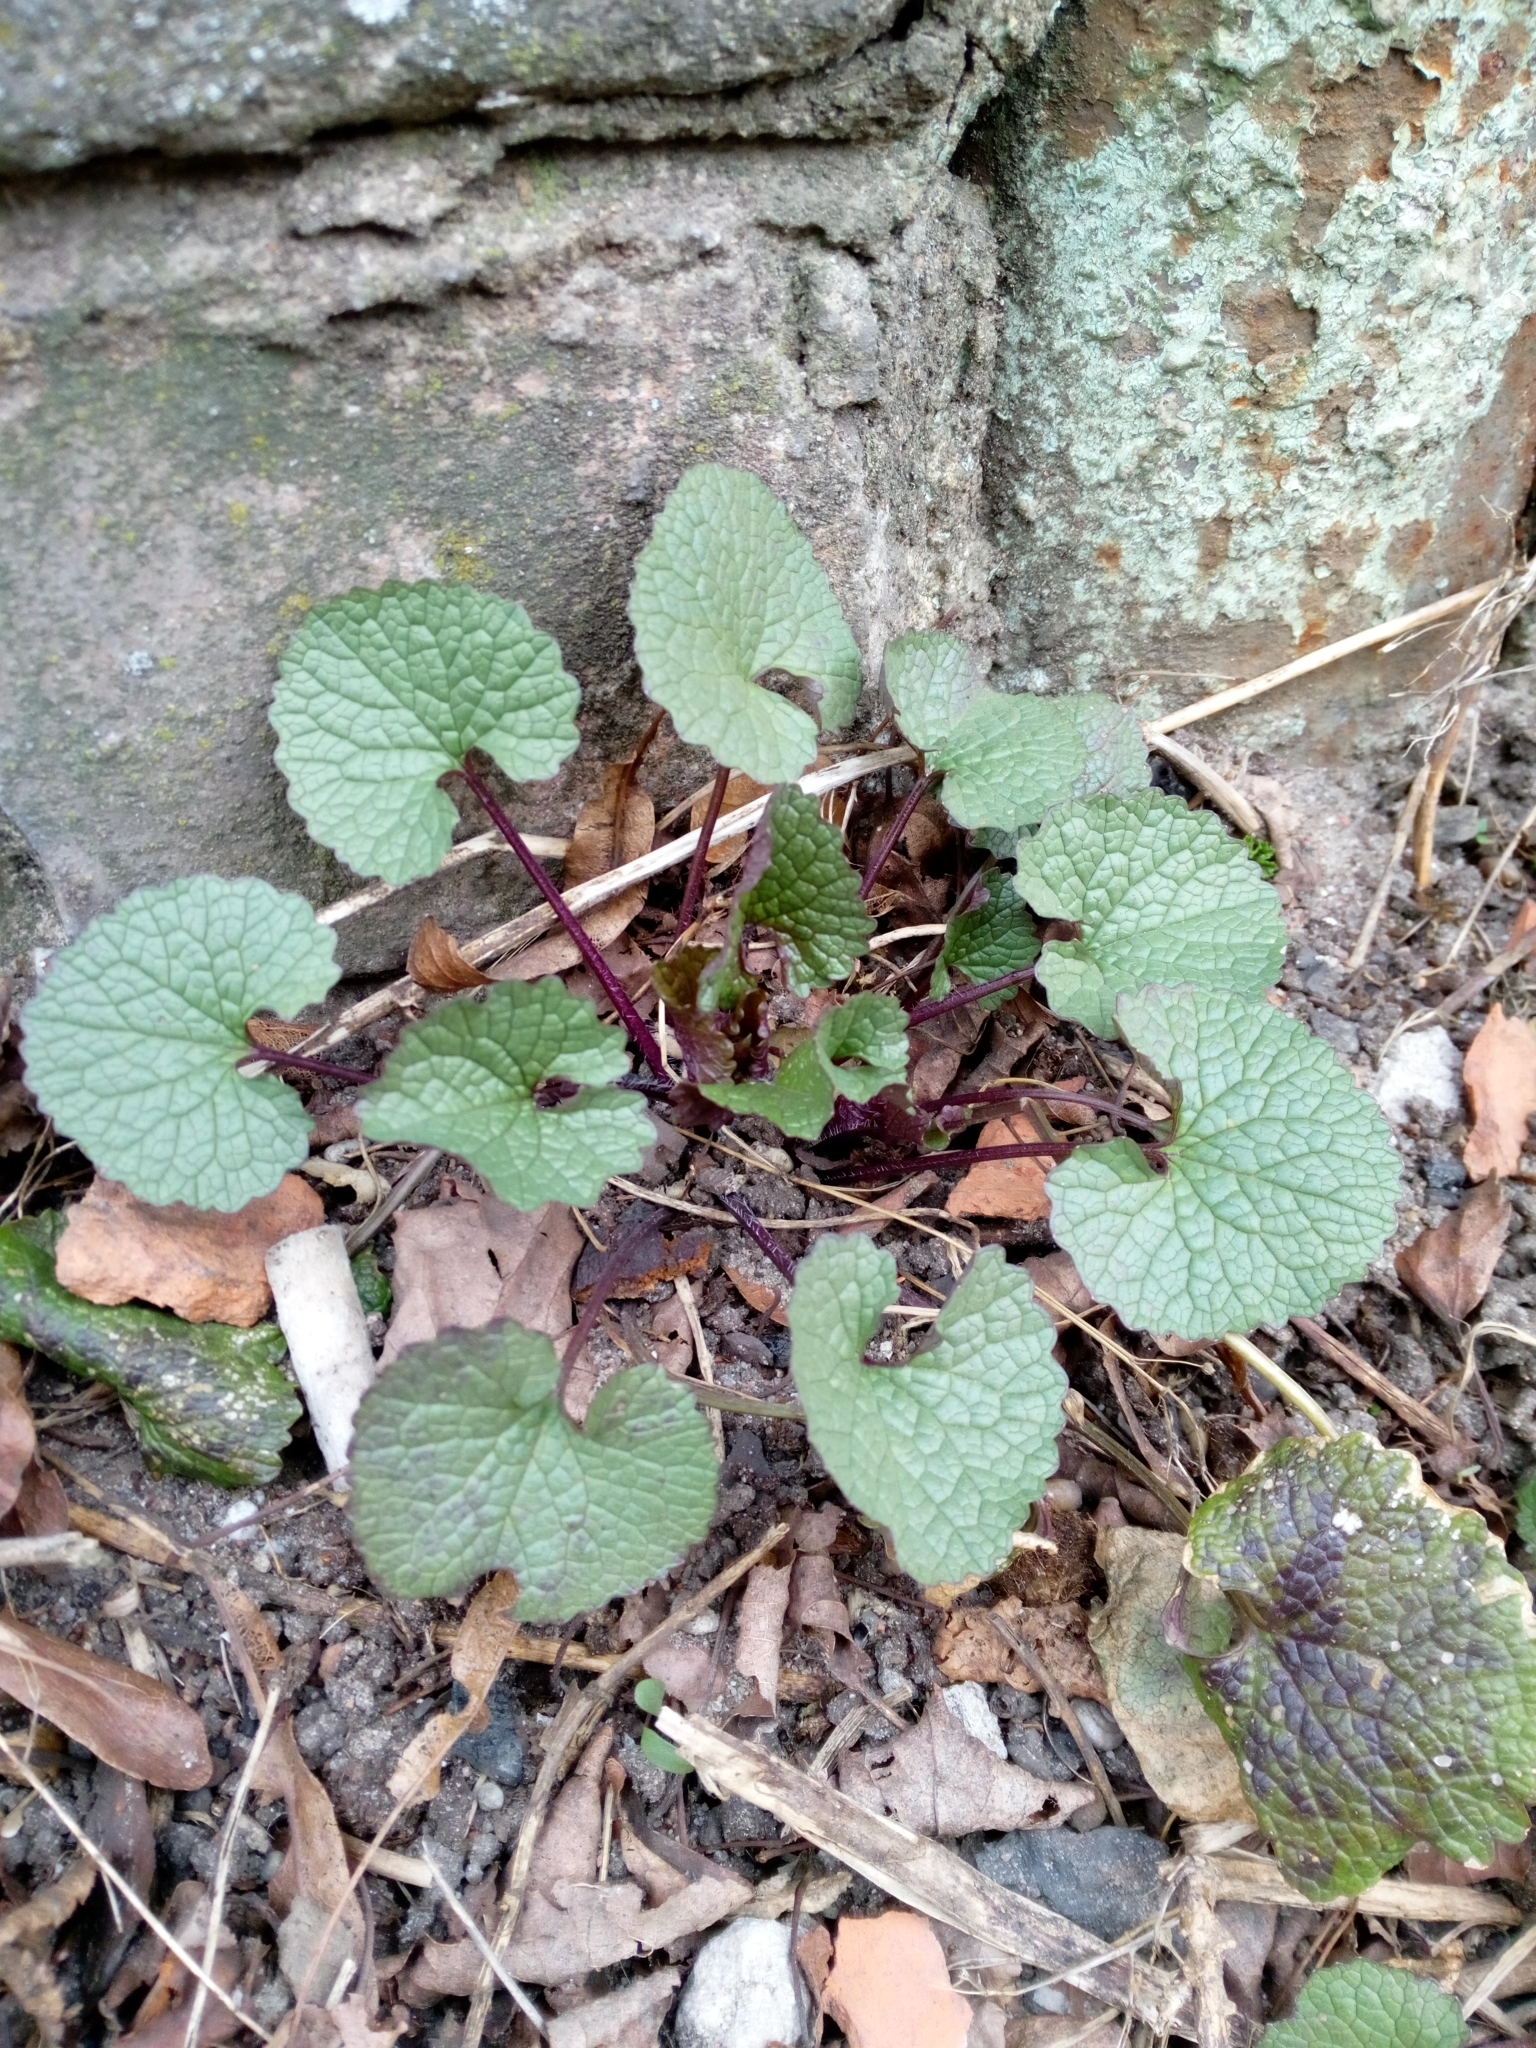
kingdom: Plantae
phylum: Tracheophyta
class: Magnoliopsida
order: Brassicales
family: Brassicaceae
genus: Alliaria
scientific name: Alliaria petiolata
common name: Garlic mustard
